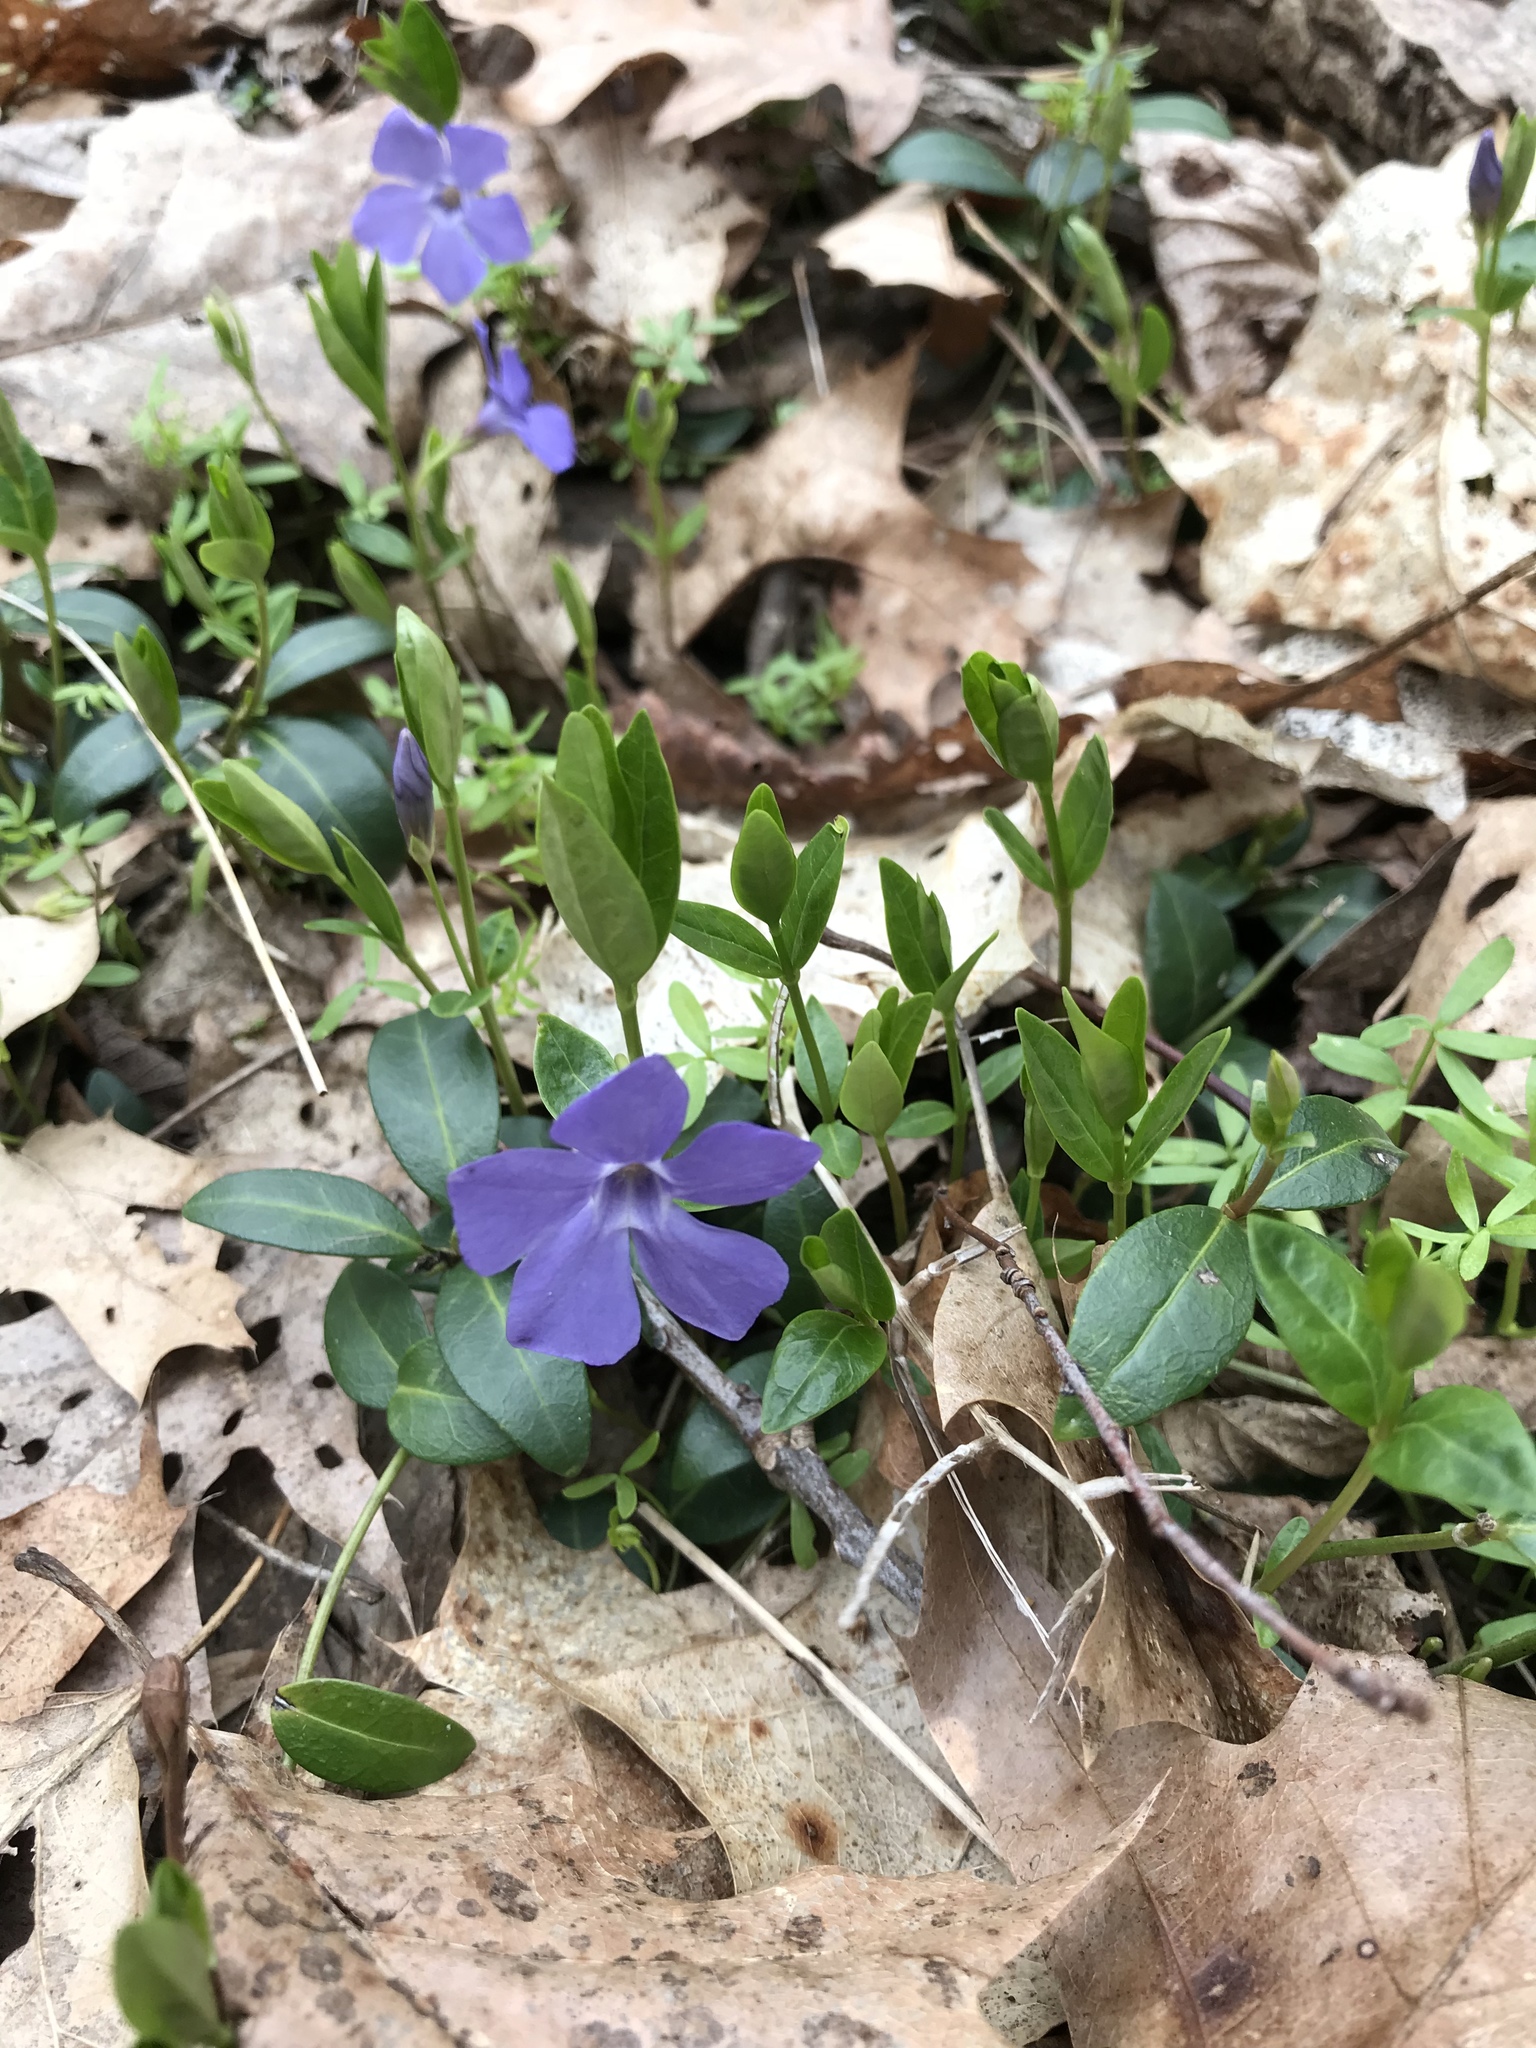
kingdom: Plantae
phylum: Tracheophyta
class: Magnoliopsida
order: Gentianales
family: Apocynaceae
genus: Vinca
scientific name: Vinca minor
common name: Lesser periwinkle
